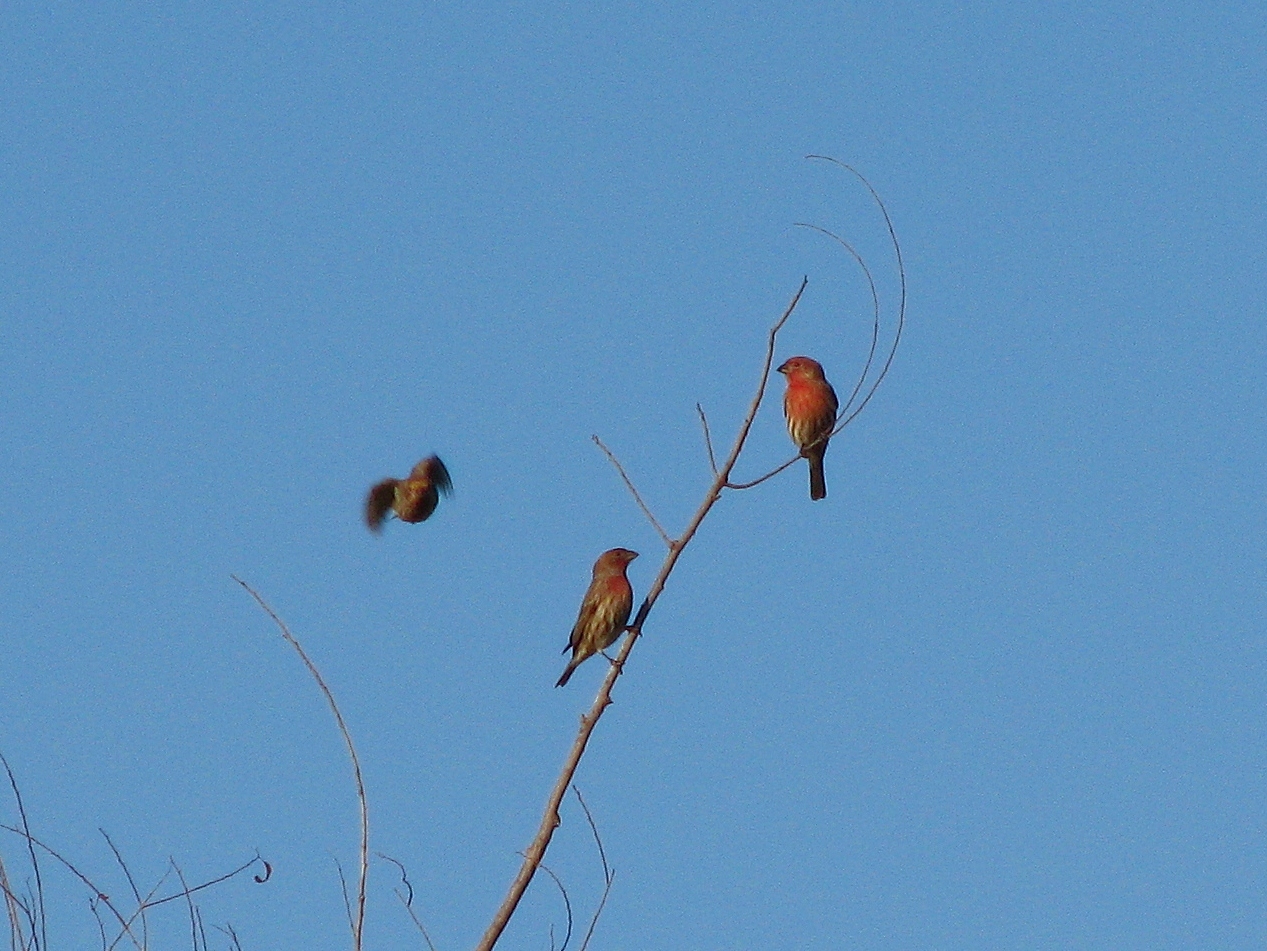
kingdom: Animalia
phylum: Chordata
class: Aves
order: Passeriformes
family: Fringillidae
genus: Haemorhous
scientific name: Haemorhous mexicanus
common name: House finch
